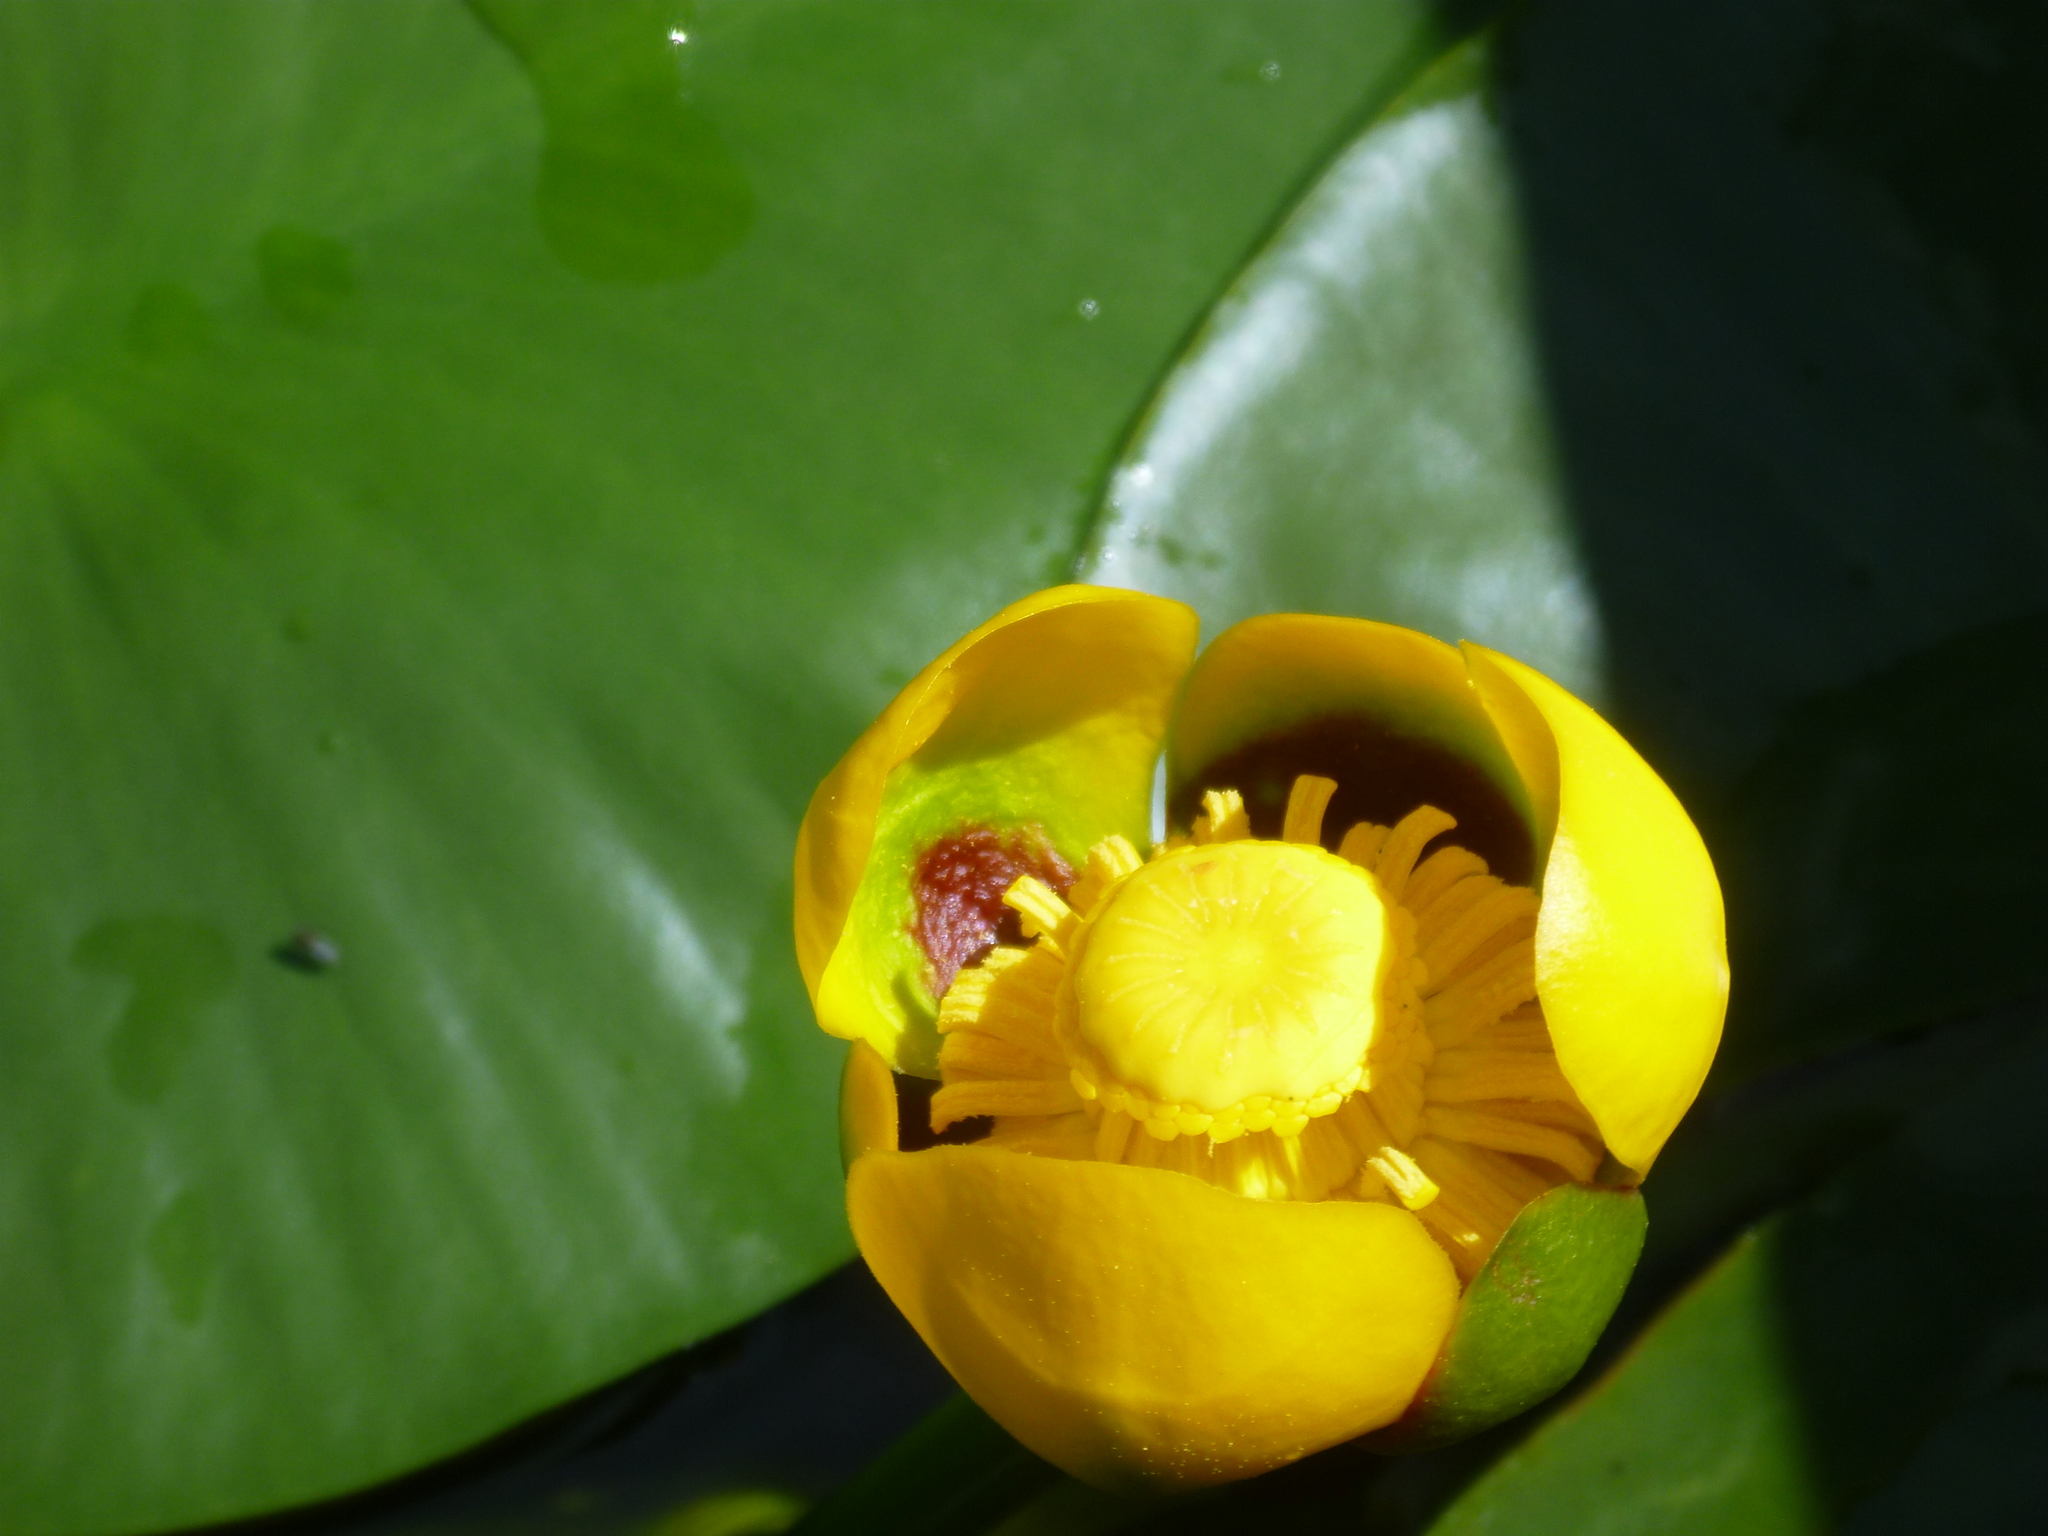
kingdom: Plantae
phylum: Tracheophyta
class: Magnoliopsida
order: Nymphaeales
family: Nymphaeaceae
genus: Nuphar
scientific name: Nuphar variegata
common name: Beaver-root
